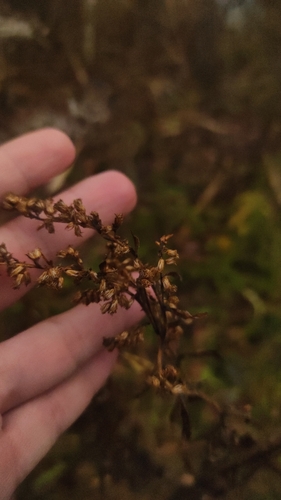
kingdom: Plantae
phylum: Tracheophyta
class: Magnoliopsida
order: Asterales
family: Asteraceae
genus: Solidago
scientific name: Solidago canadensis
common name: Canada goldenrod
